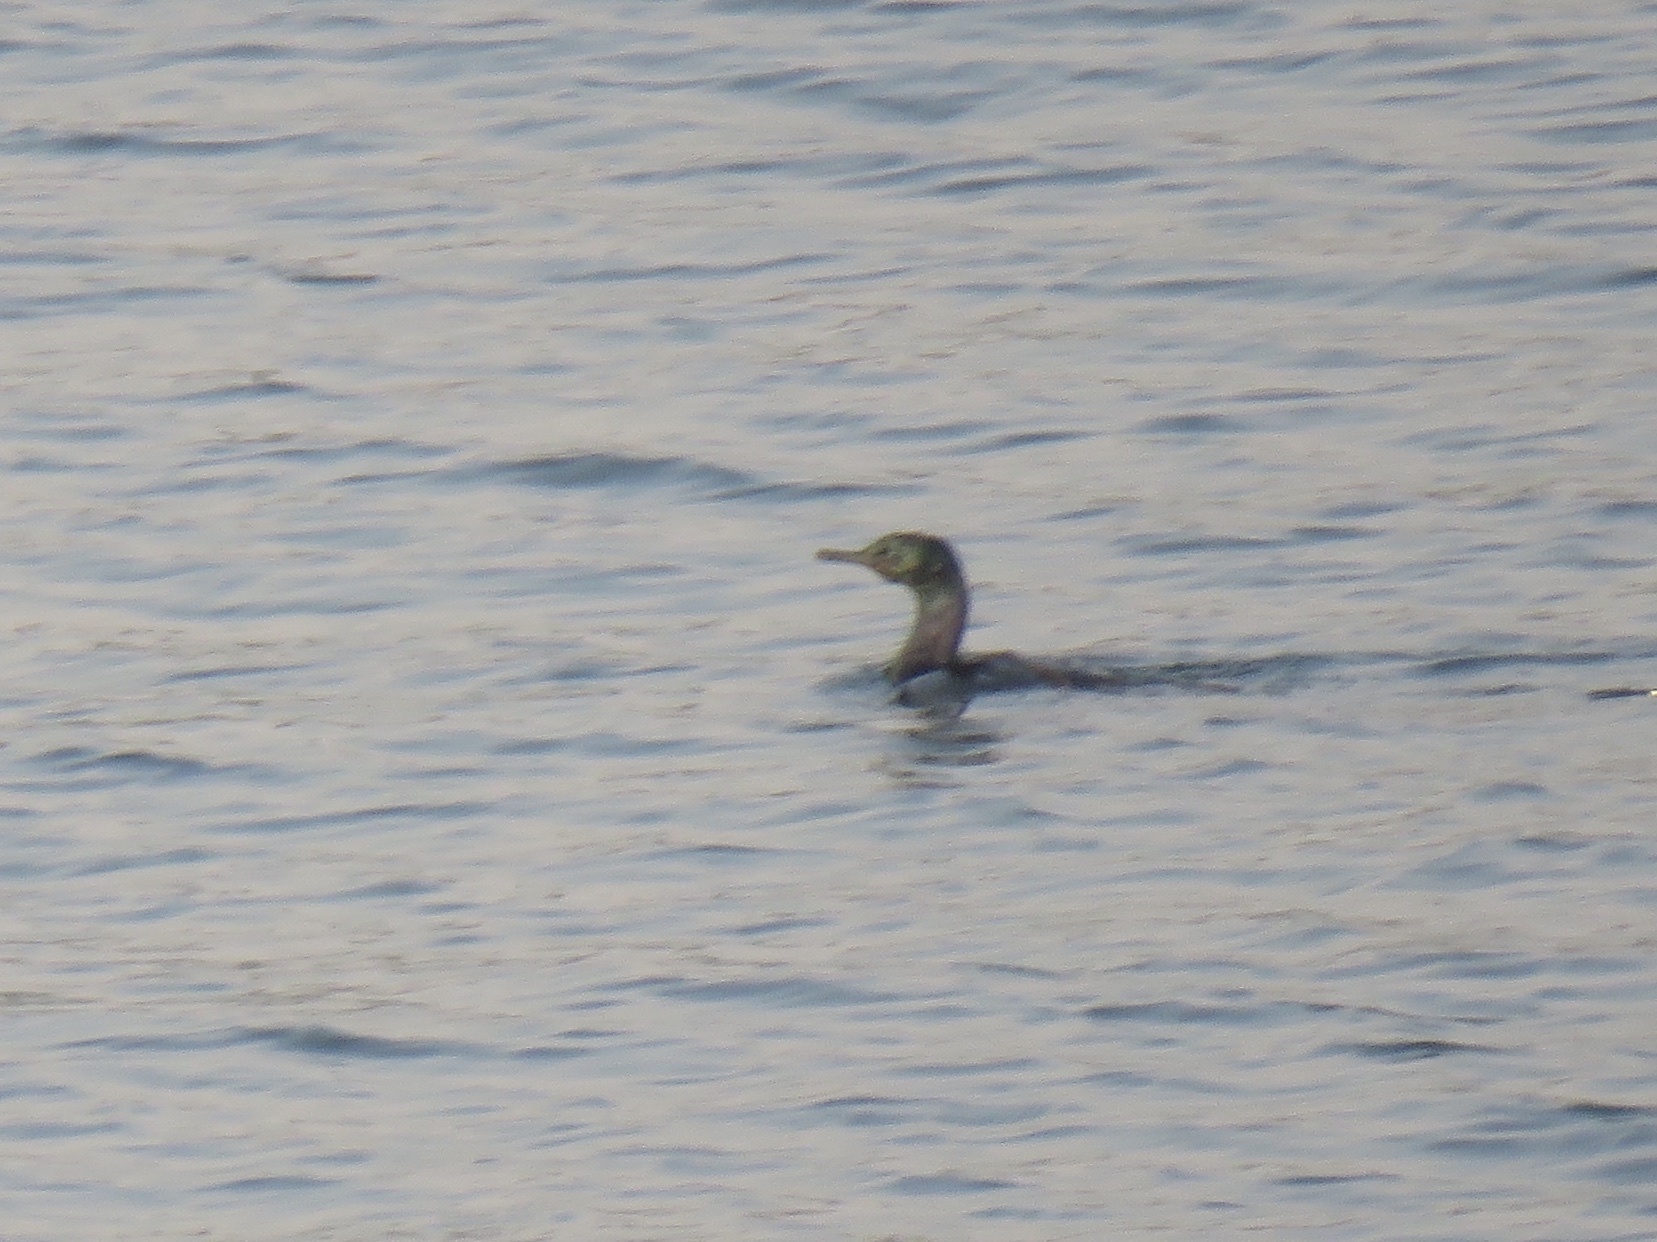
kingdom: Animalia
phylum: Chordata
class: Aves
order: Suliformes
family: Phalacrocoracidae
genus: Phalacrocorax
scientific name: Phalacrocorax pelagicus
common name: Pelagic cormorant
